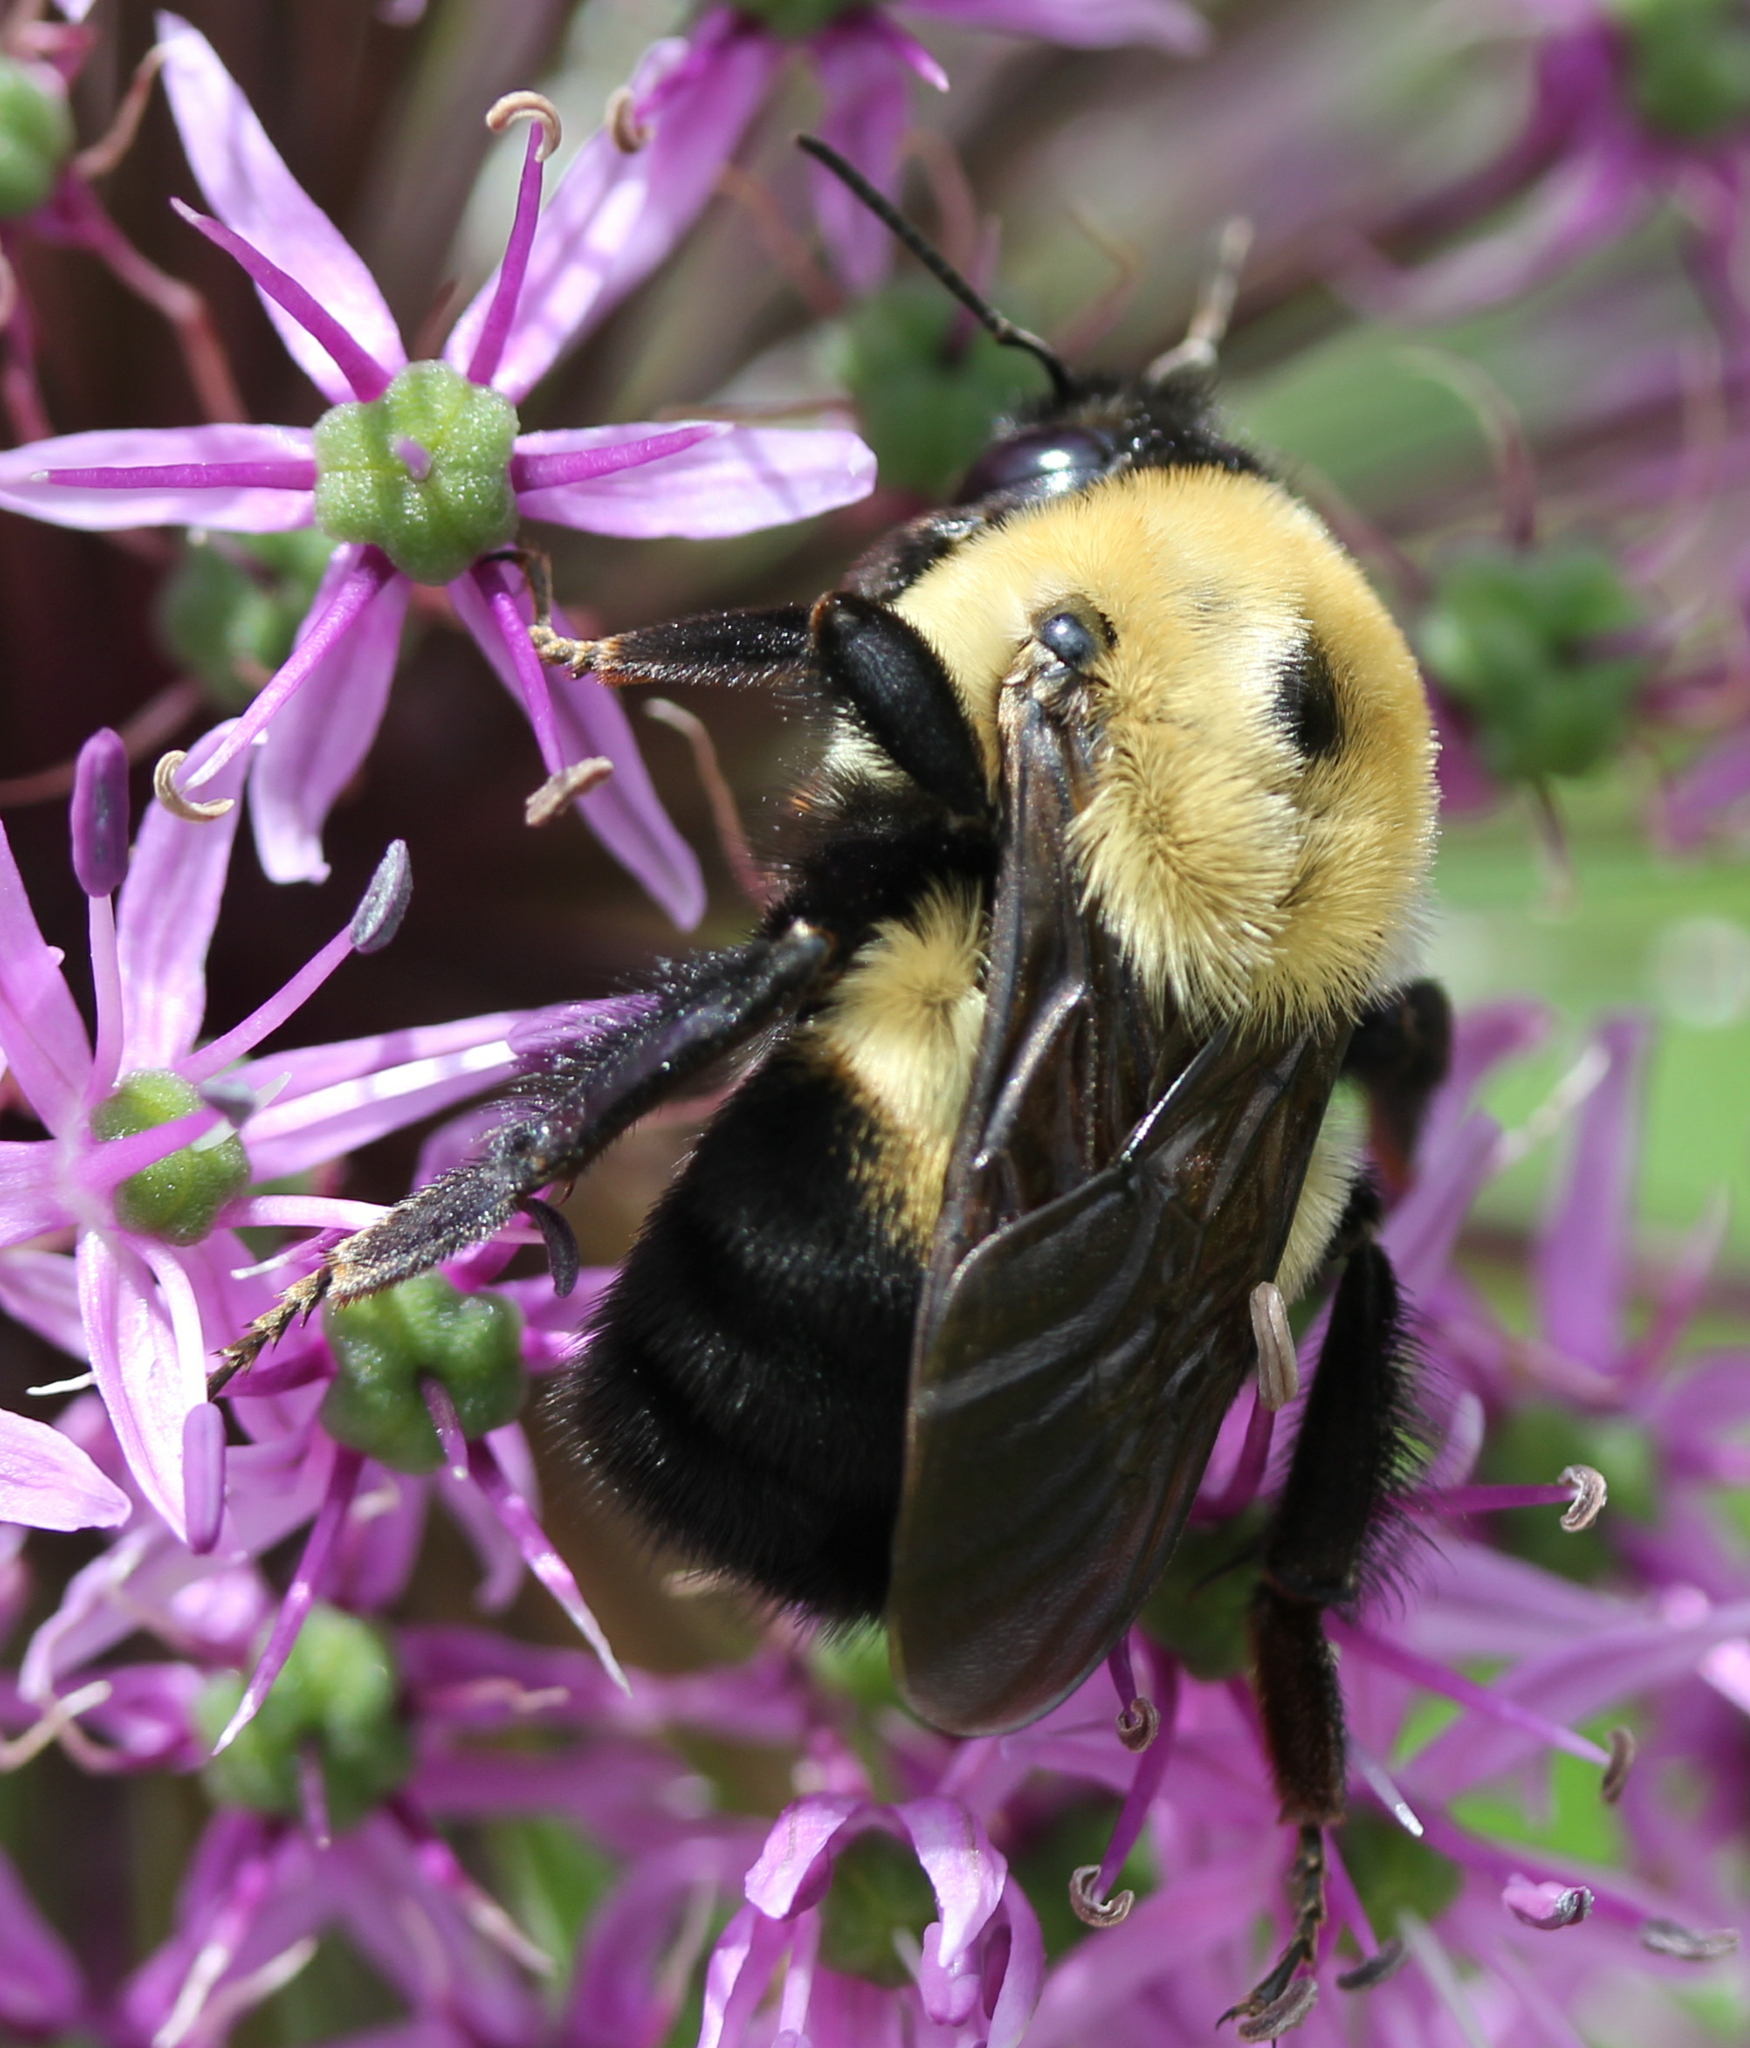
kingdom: Animalia
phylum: Arthropoda
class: Insecta
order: Hymenoptera
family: Apidae
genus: Bombus
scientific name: Bombus griseocollis
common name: Brown-belted bumble bee
